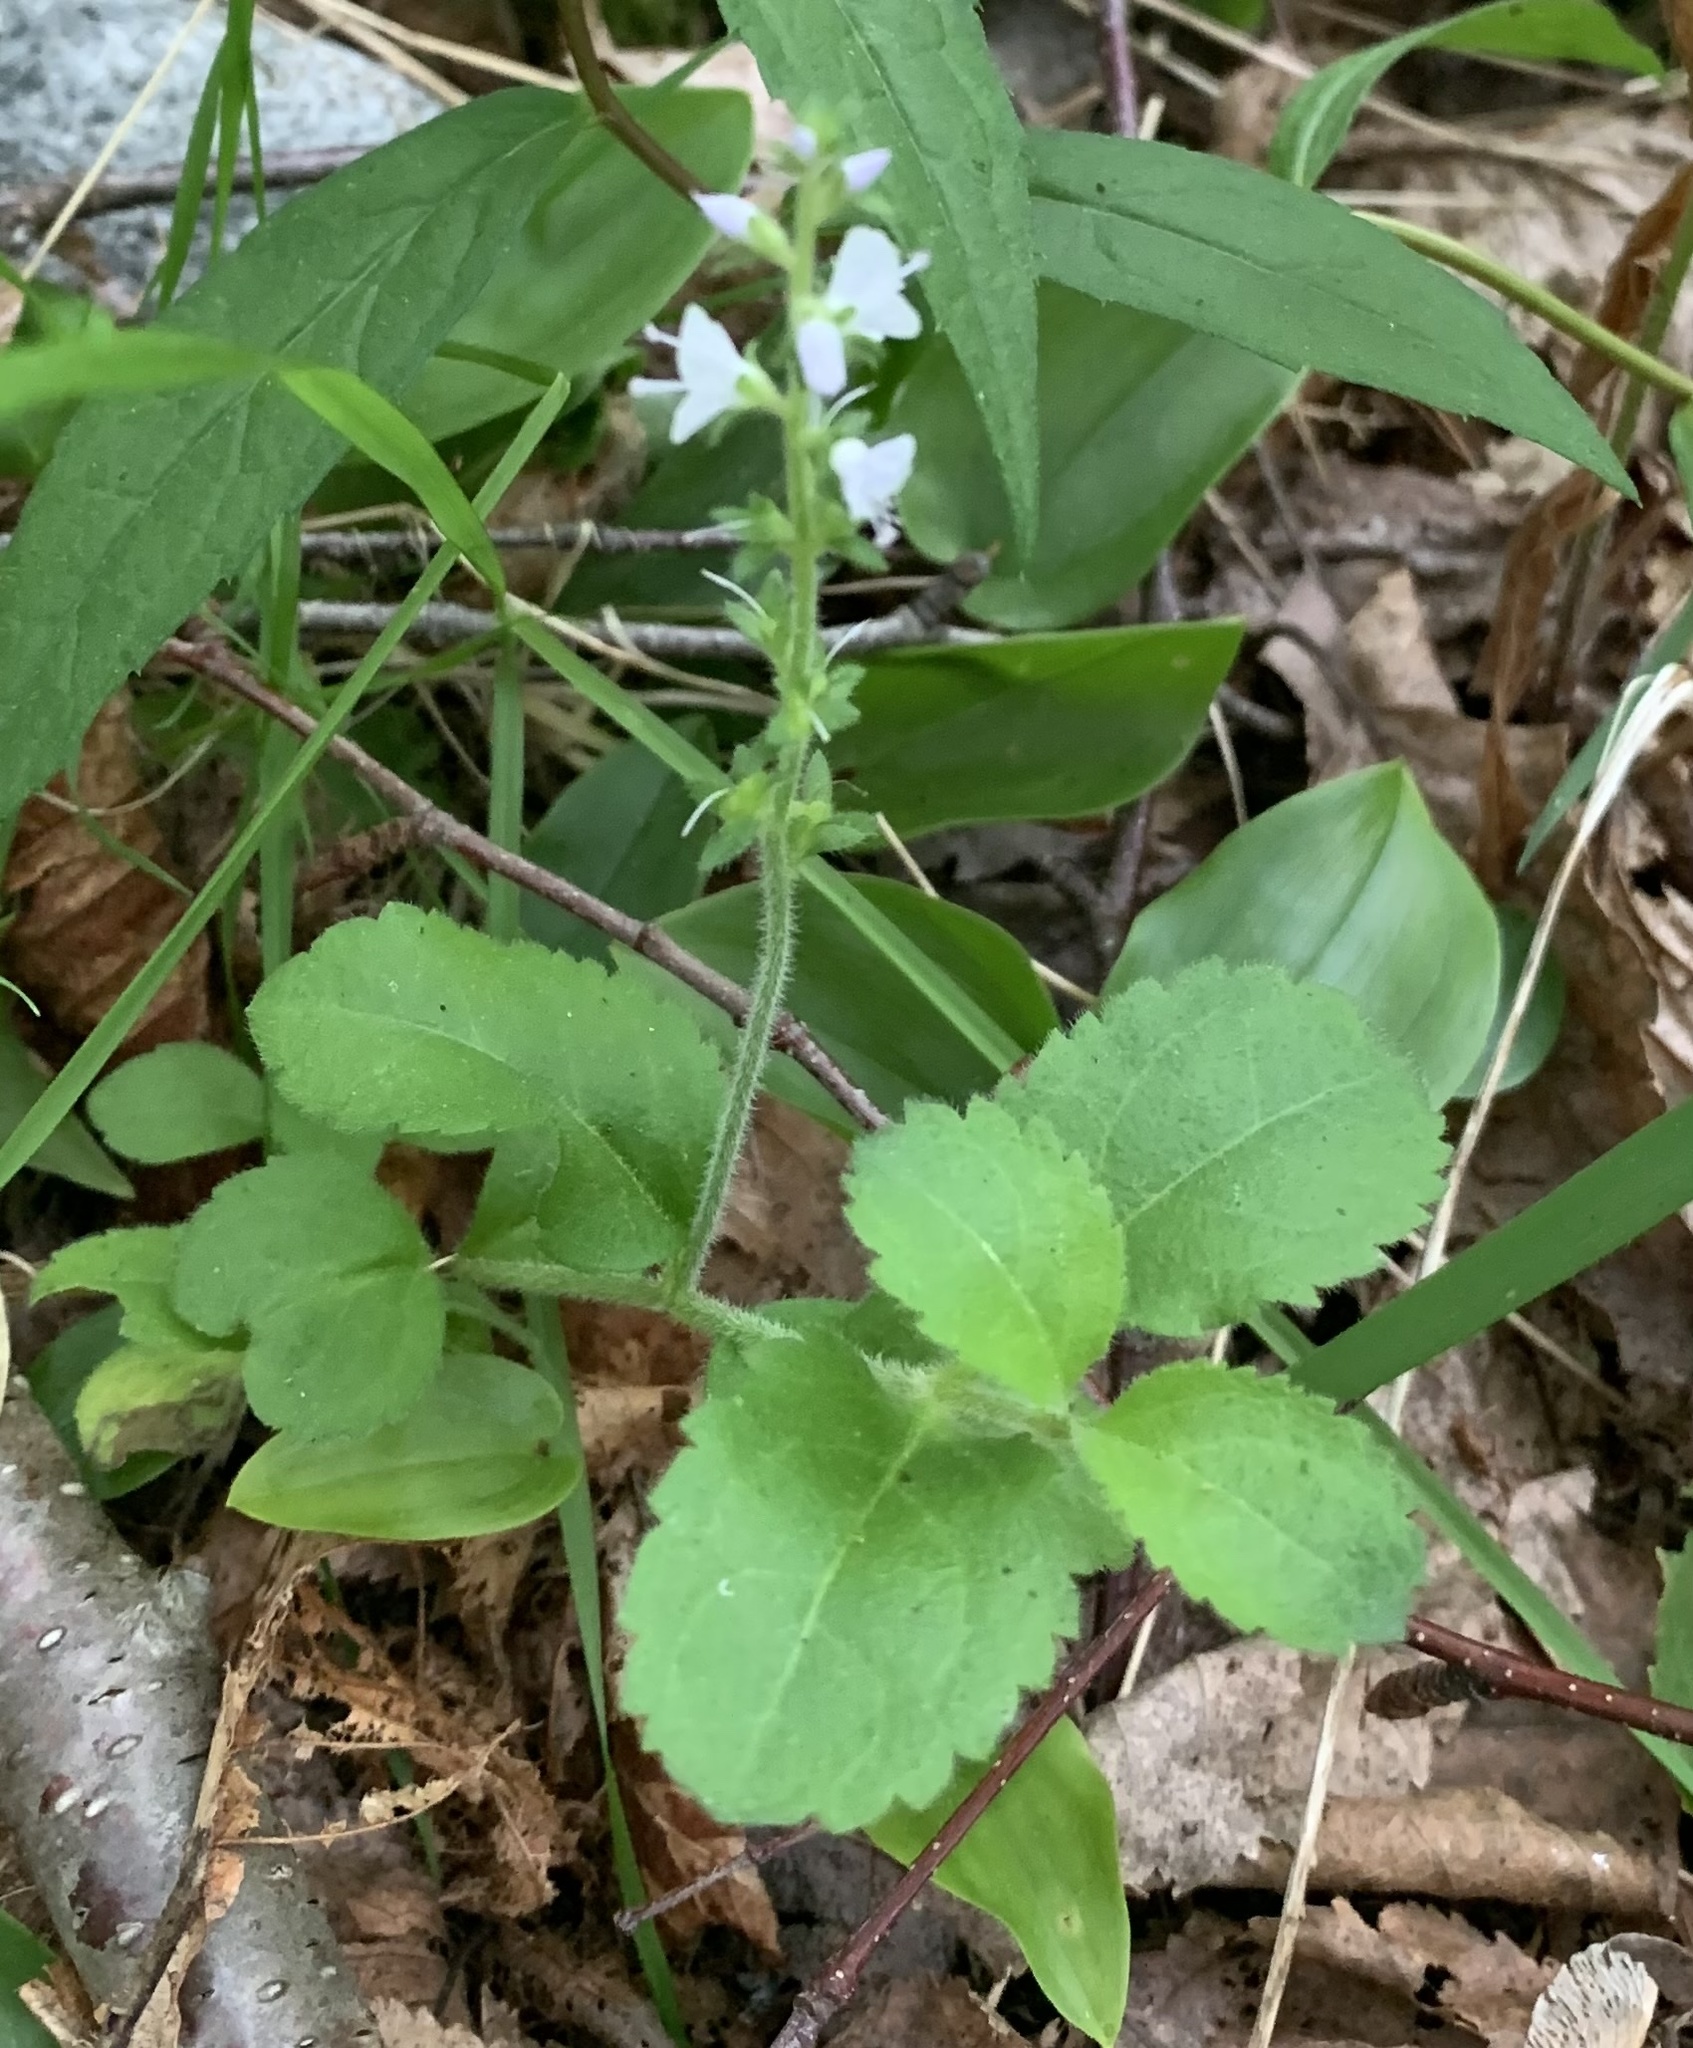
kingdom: Plantae
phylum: Tracheophyta
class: Magnoliopsida
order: Lamiales
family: Plantaginaceae
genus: Veronica
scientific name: Veronica officinalis
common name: Common speedwell
